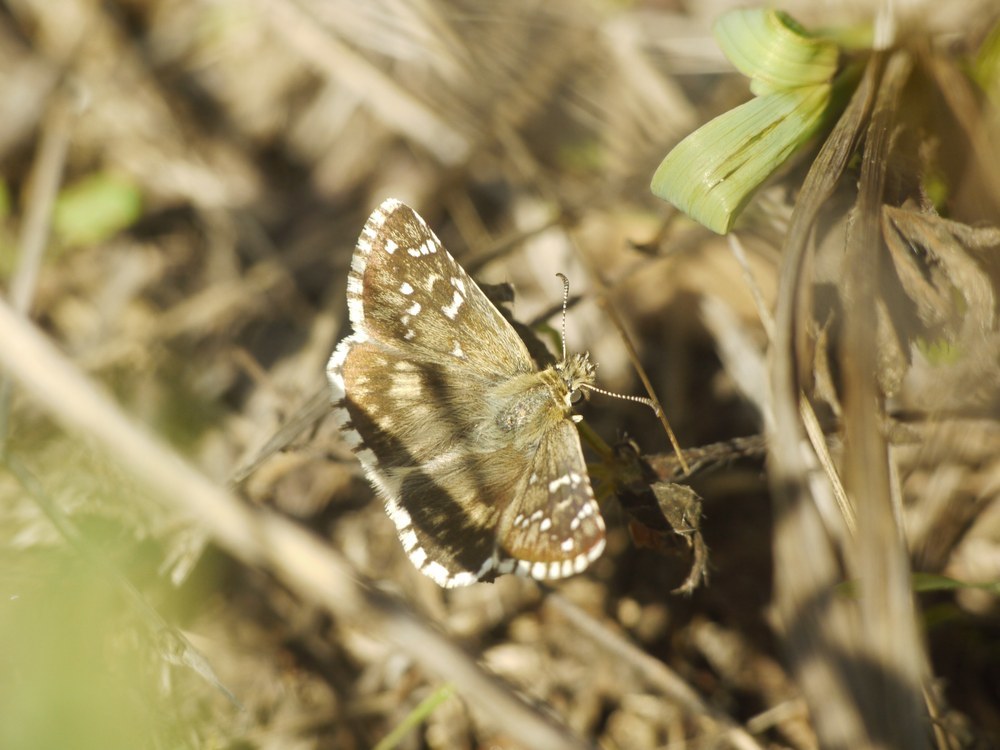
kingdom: Animalia
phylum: Arthropoda
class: Insecta
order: Lepidoptera
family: Hesperiidae
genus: Pyrgus
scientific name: Pyrgus armoricanus
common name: Oberthür's grizzled skipper
